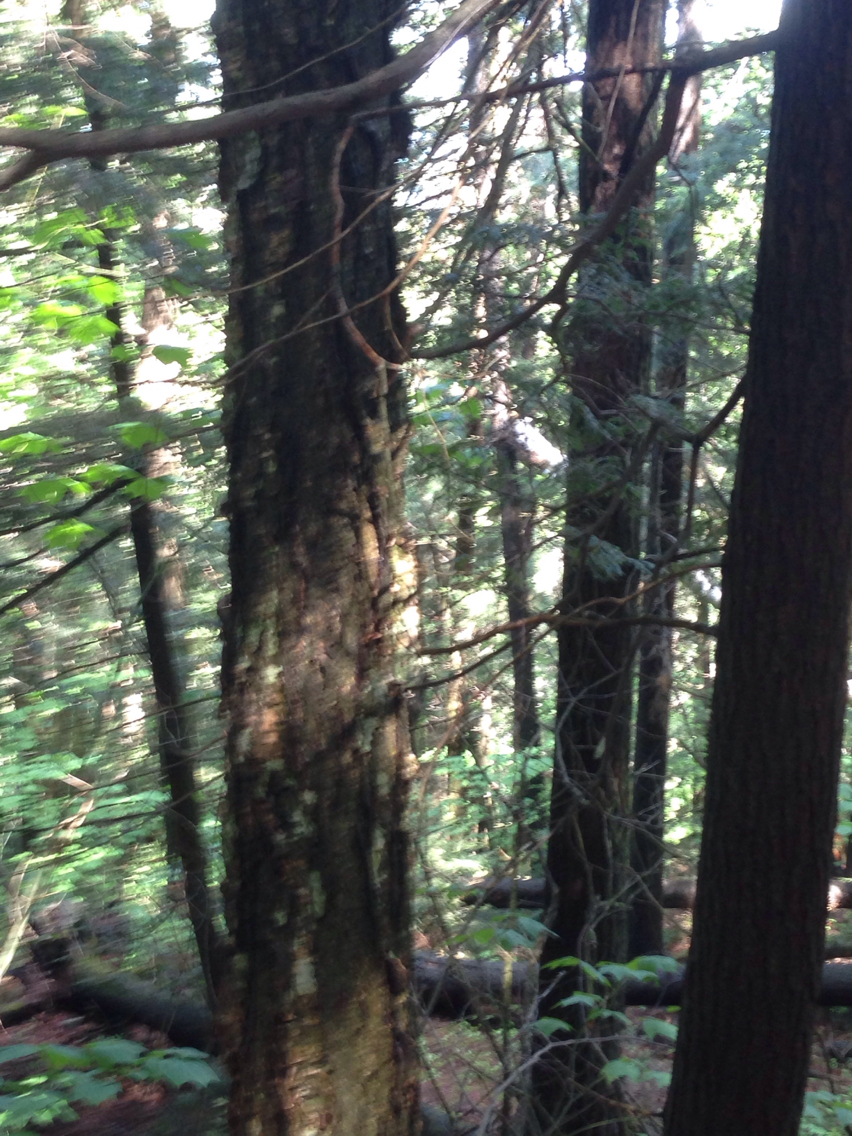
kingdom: Plantae
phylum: Tracheophyta
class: Magnoliopsida
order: Fagales
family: Betulaceae
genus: Betula
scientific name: Betula alleghaniensis
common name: Yellow birch
